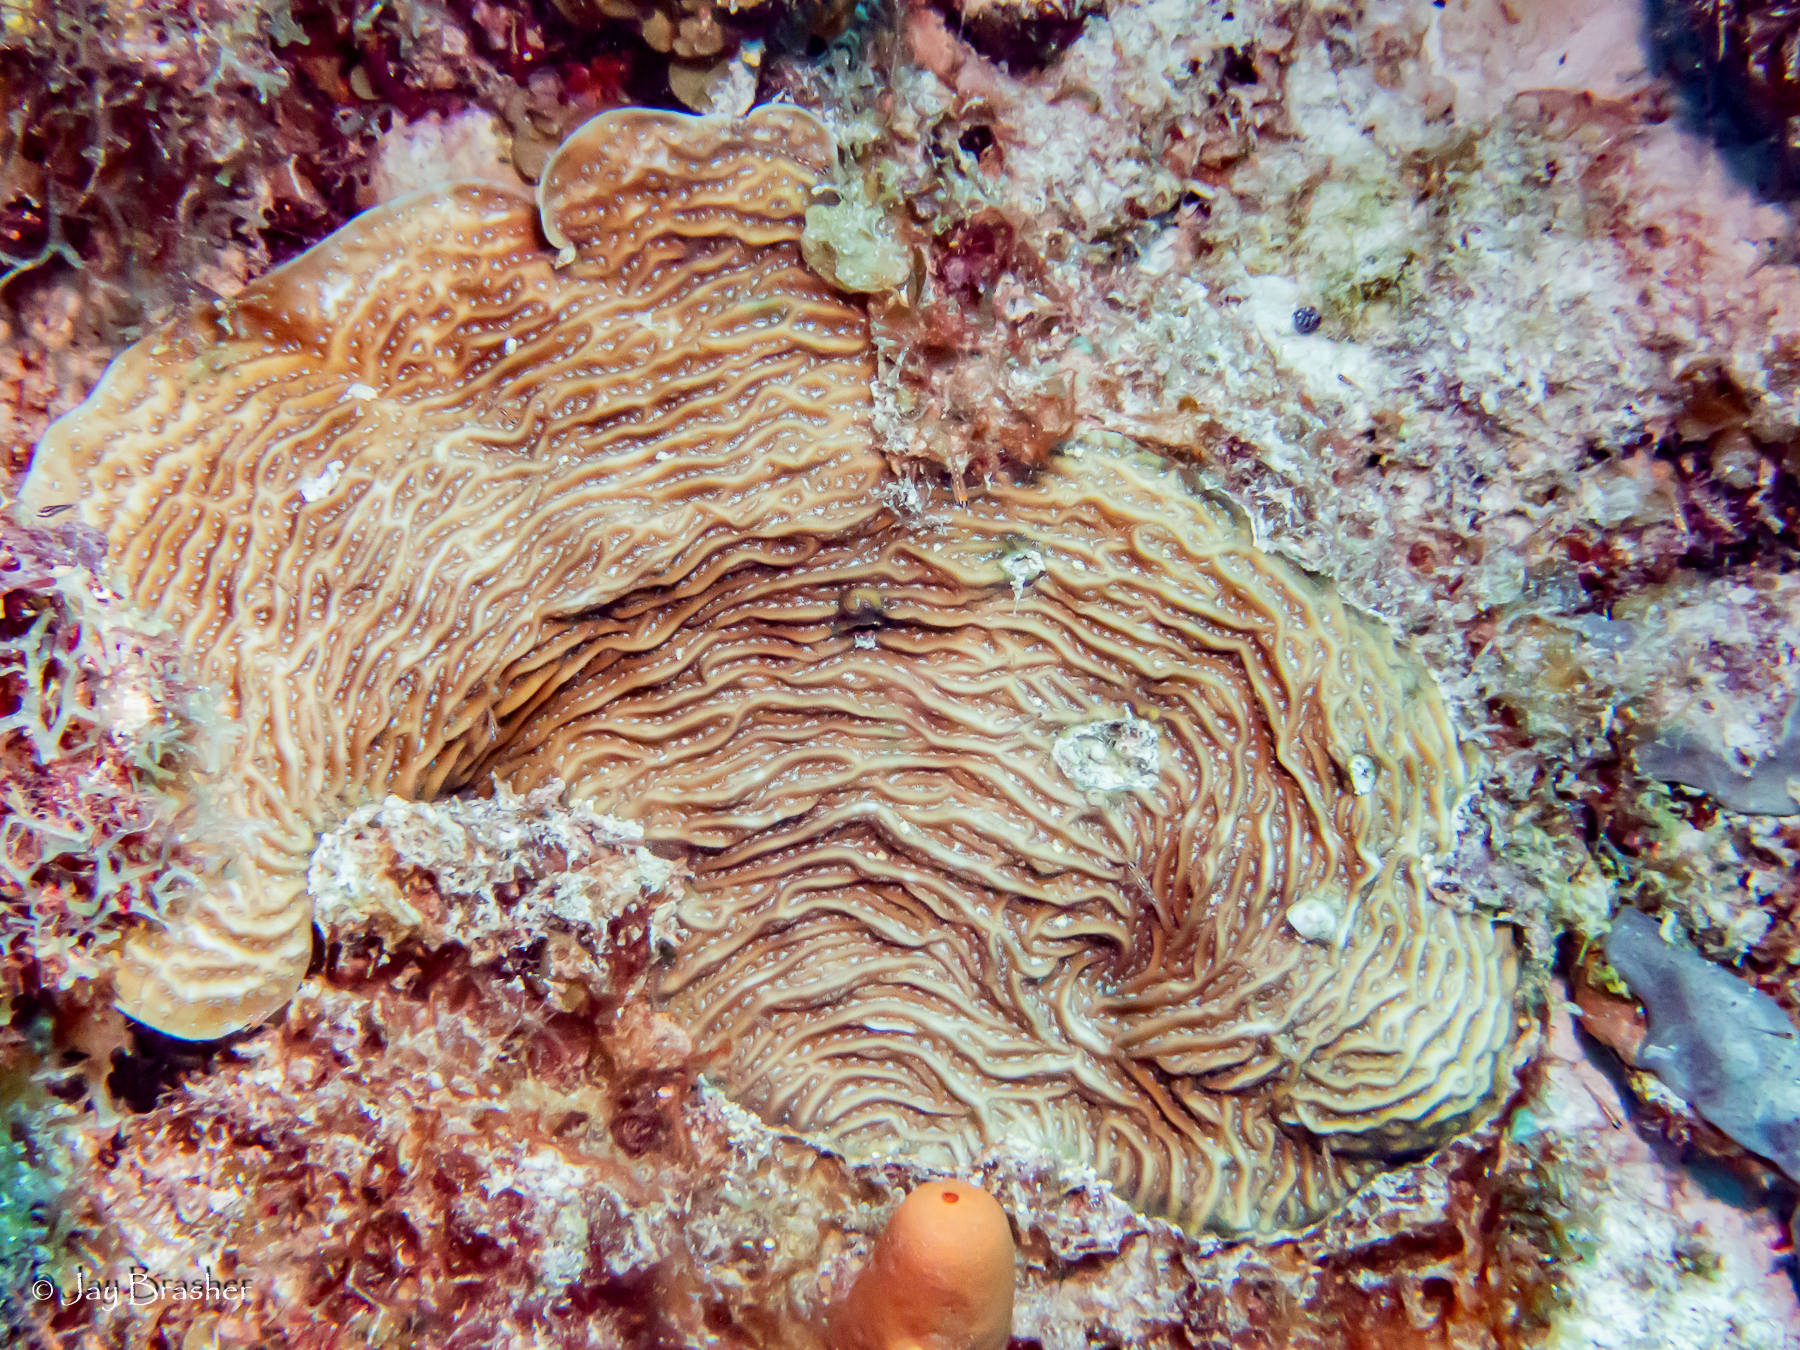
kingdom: Animalia
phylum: Cnidaria
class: Anthozoa
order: Scleractinia
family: Agariciidae
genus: Agaricia
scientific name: Agaricia lamarcki
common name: Lamarck's sheet coral
